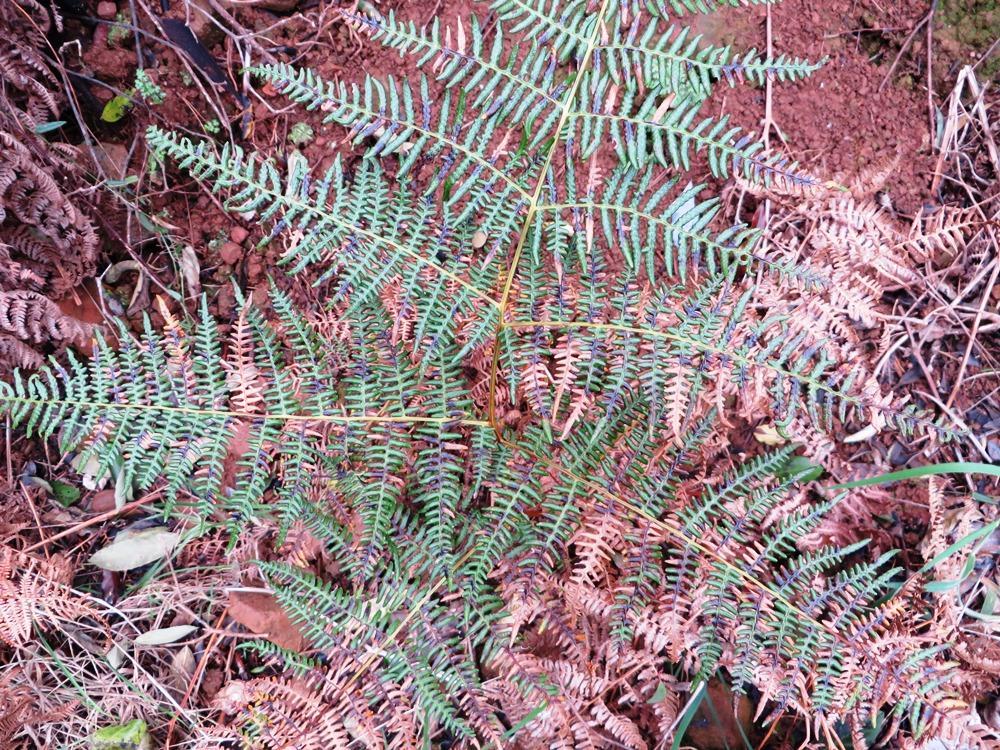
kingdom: Plantae
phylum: Tracheophyta
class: Polypodiopsida
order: Polypodiales
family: Dennstaedtiaceae
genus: Pteridium
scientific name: Pteridium aquilinum
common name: Bracken
